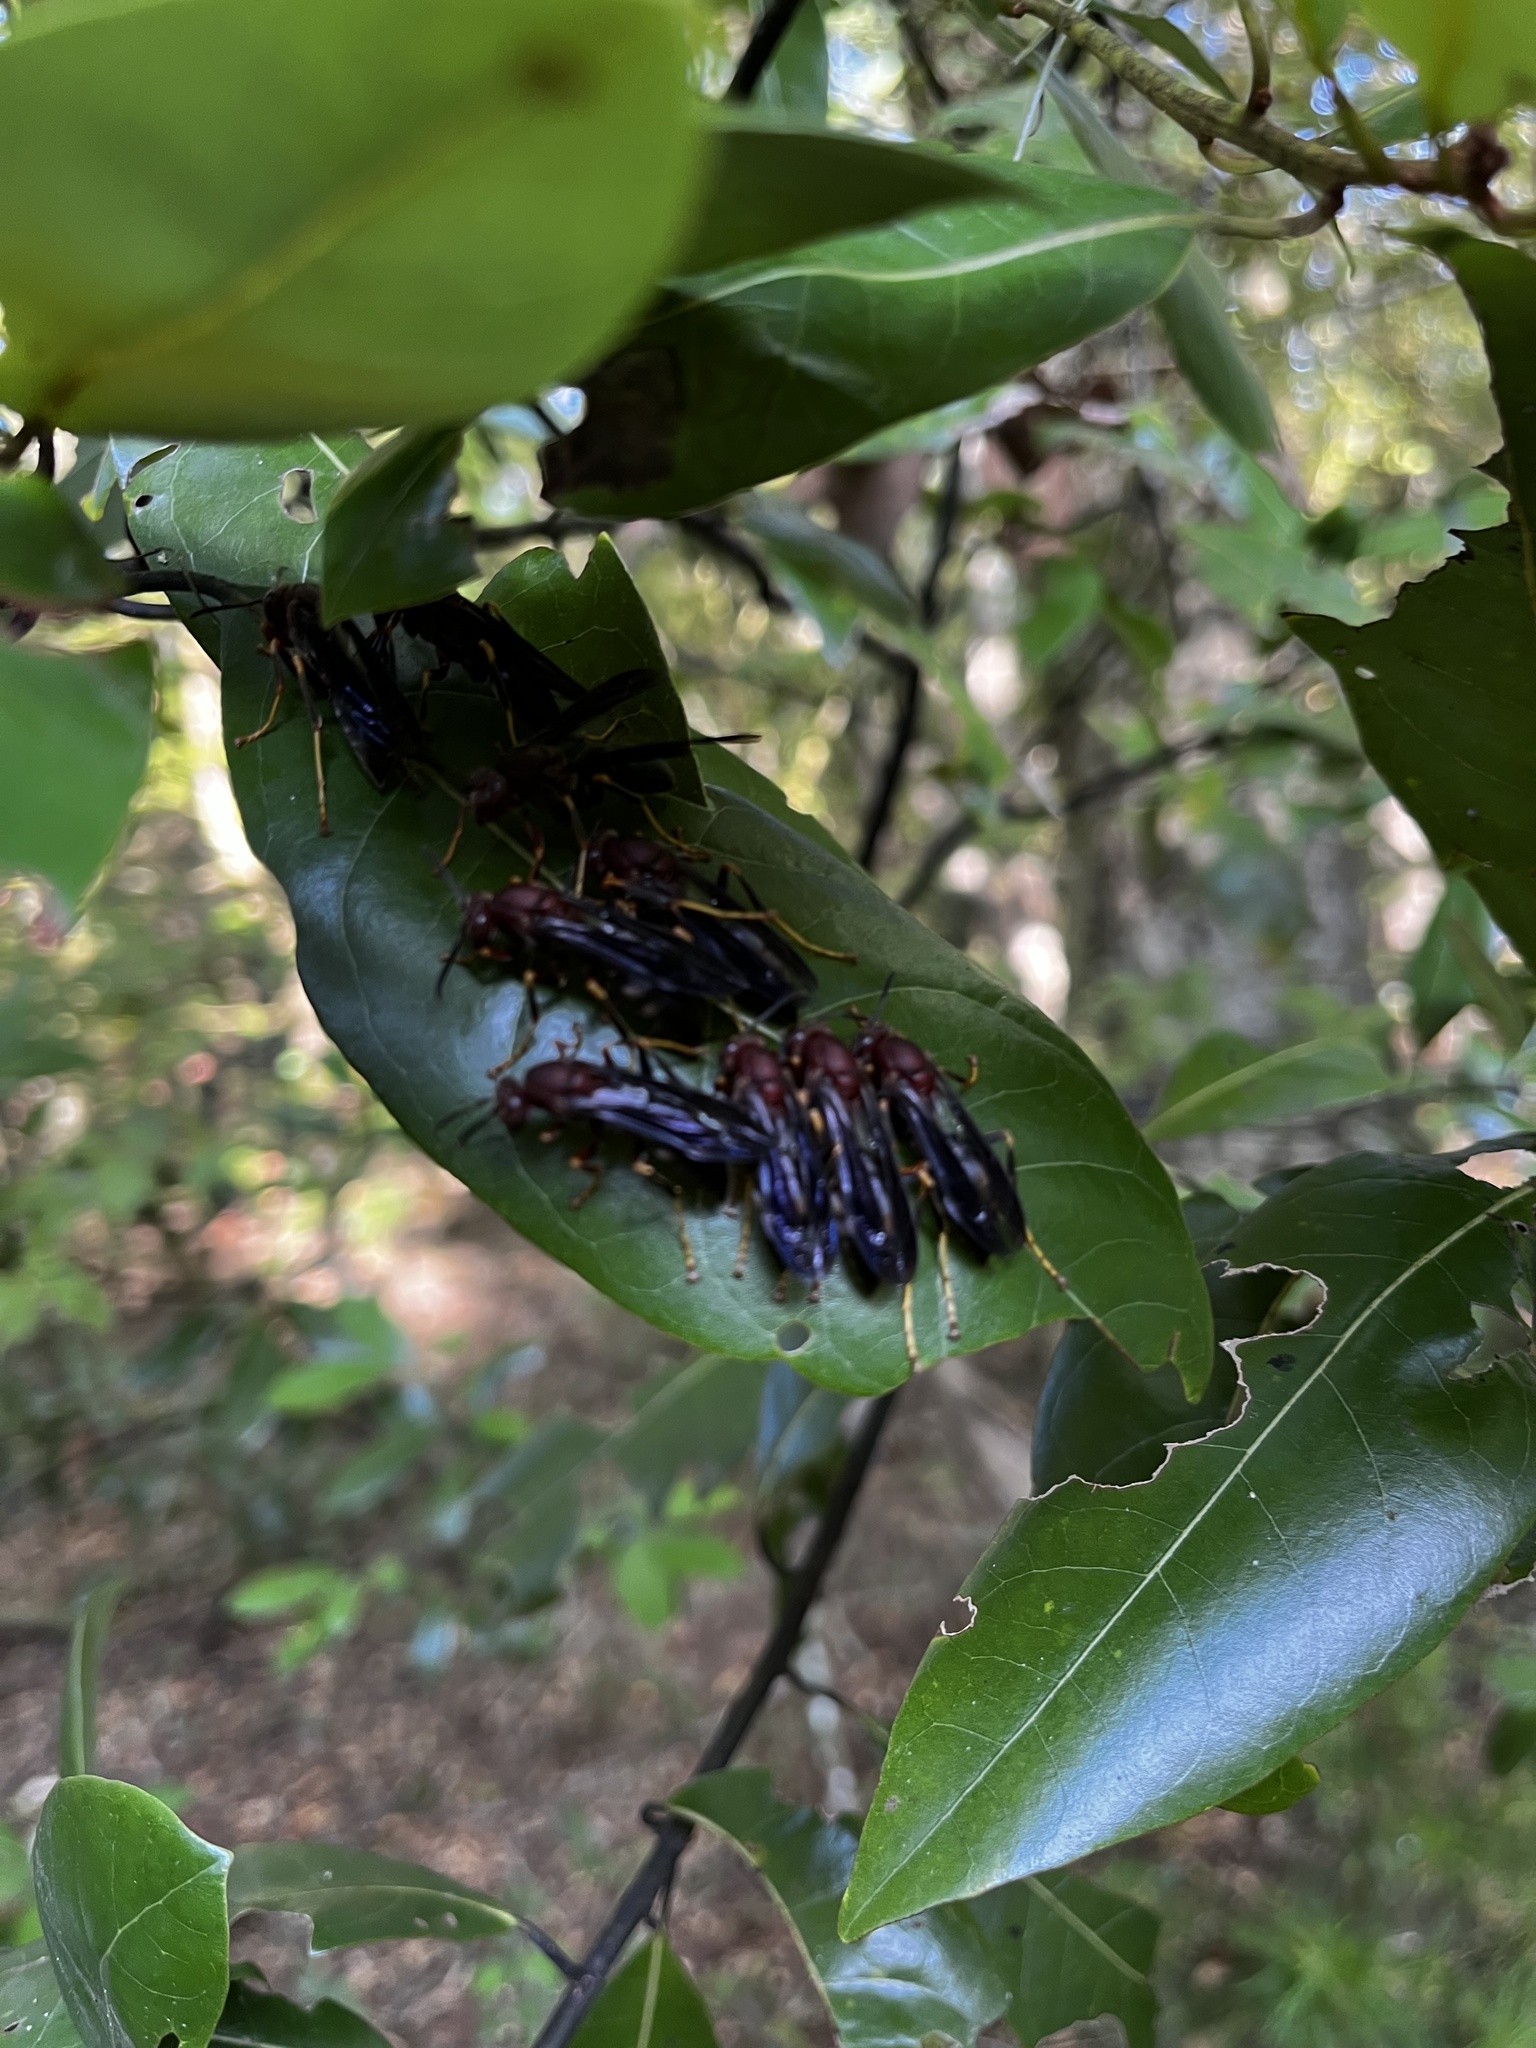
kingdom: Animalia
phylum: Arthropoda
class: Insecta
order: Hymenoptera
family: Eumenidae
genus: Polistes
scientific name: Polistes metricus
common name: Metric paper wasp
